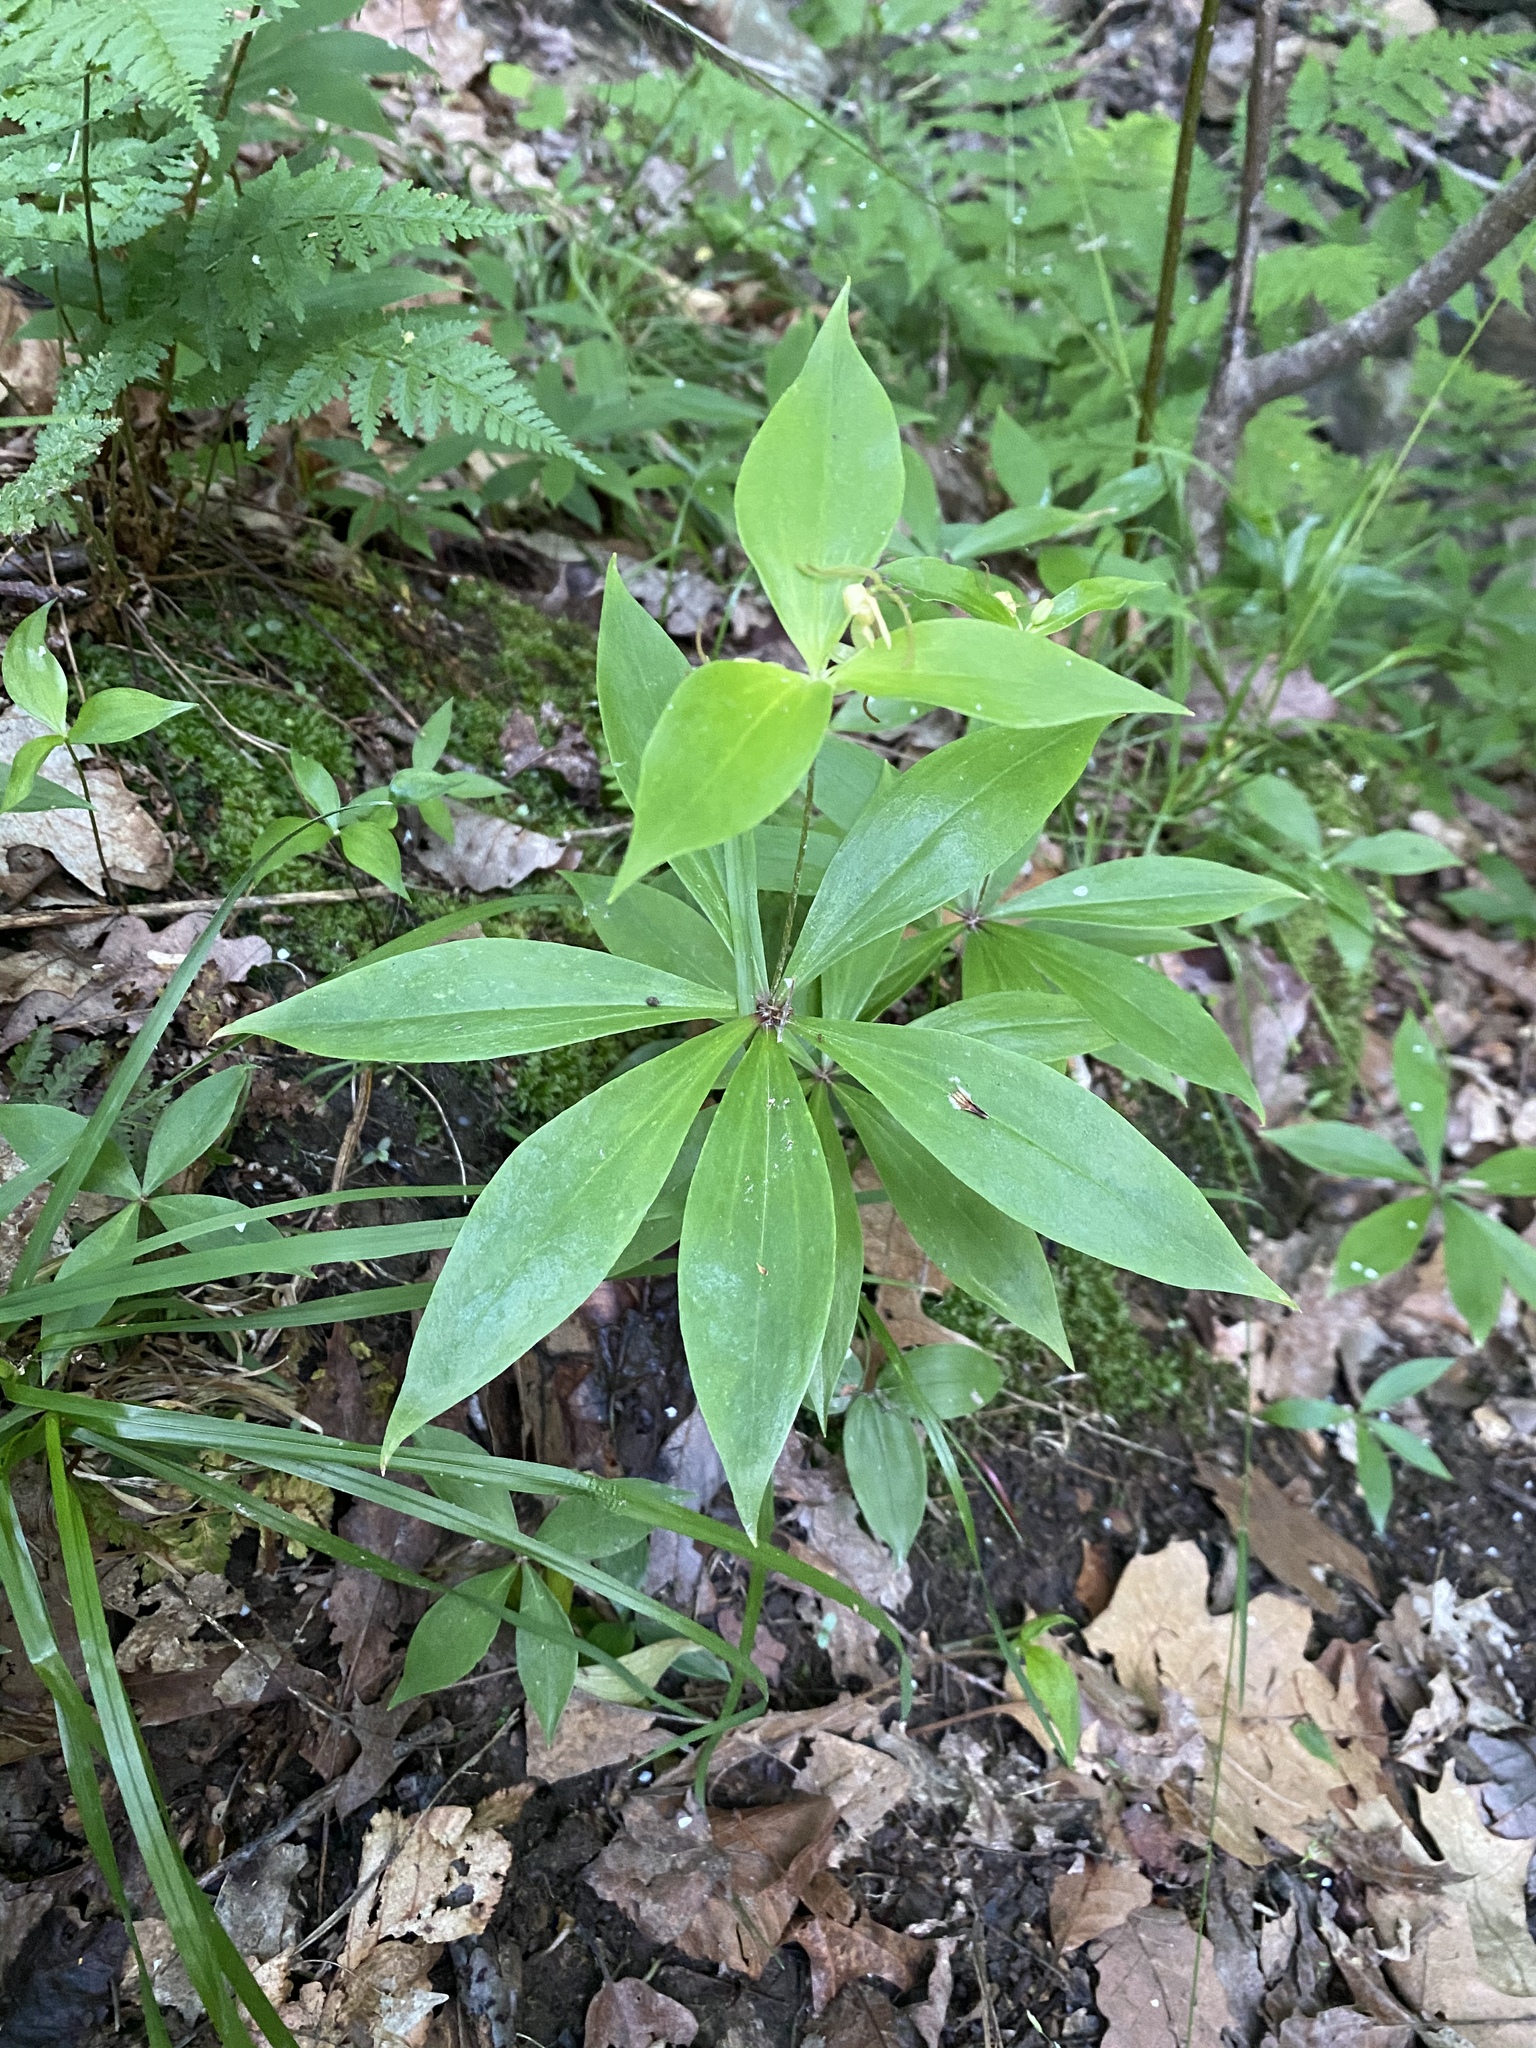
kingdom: Plantae
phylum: Tracheophyta
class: Liliopsida
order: Liliales
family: Liliaceae
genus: Medeola
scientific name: Medeola virginiana
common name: Indian cucumber-root
